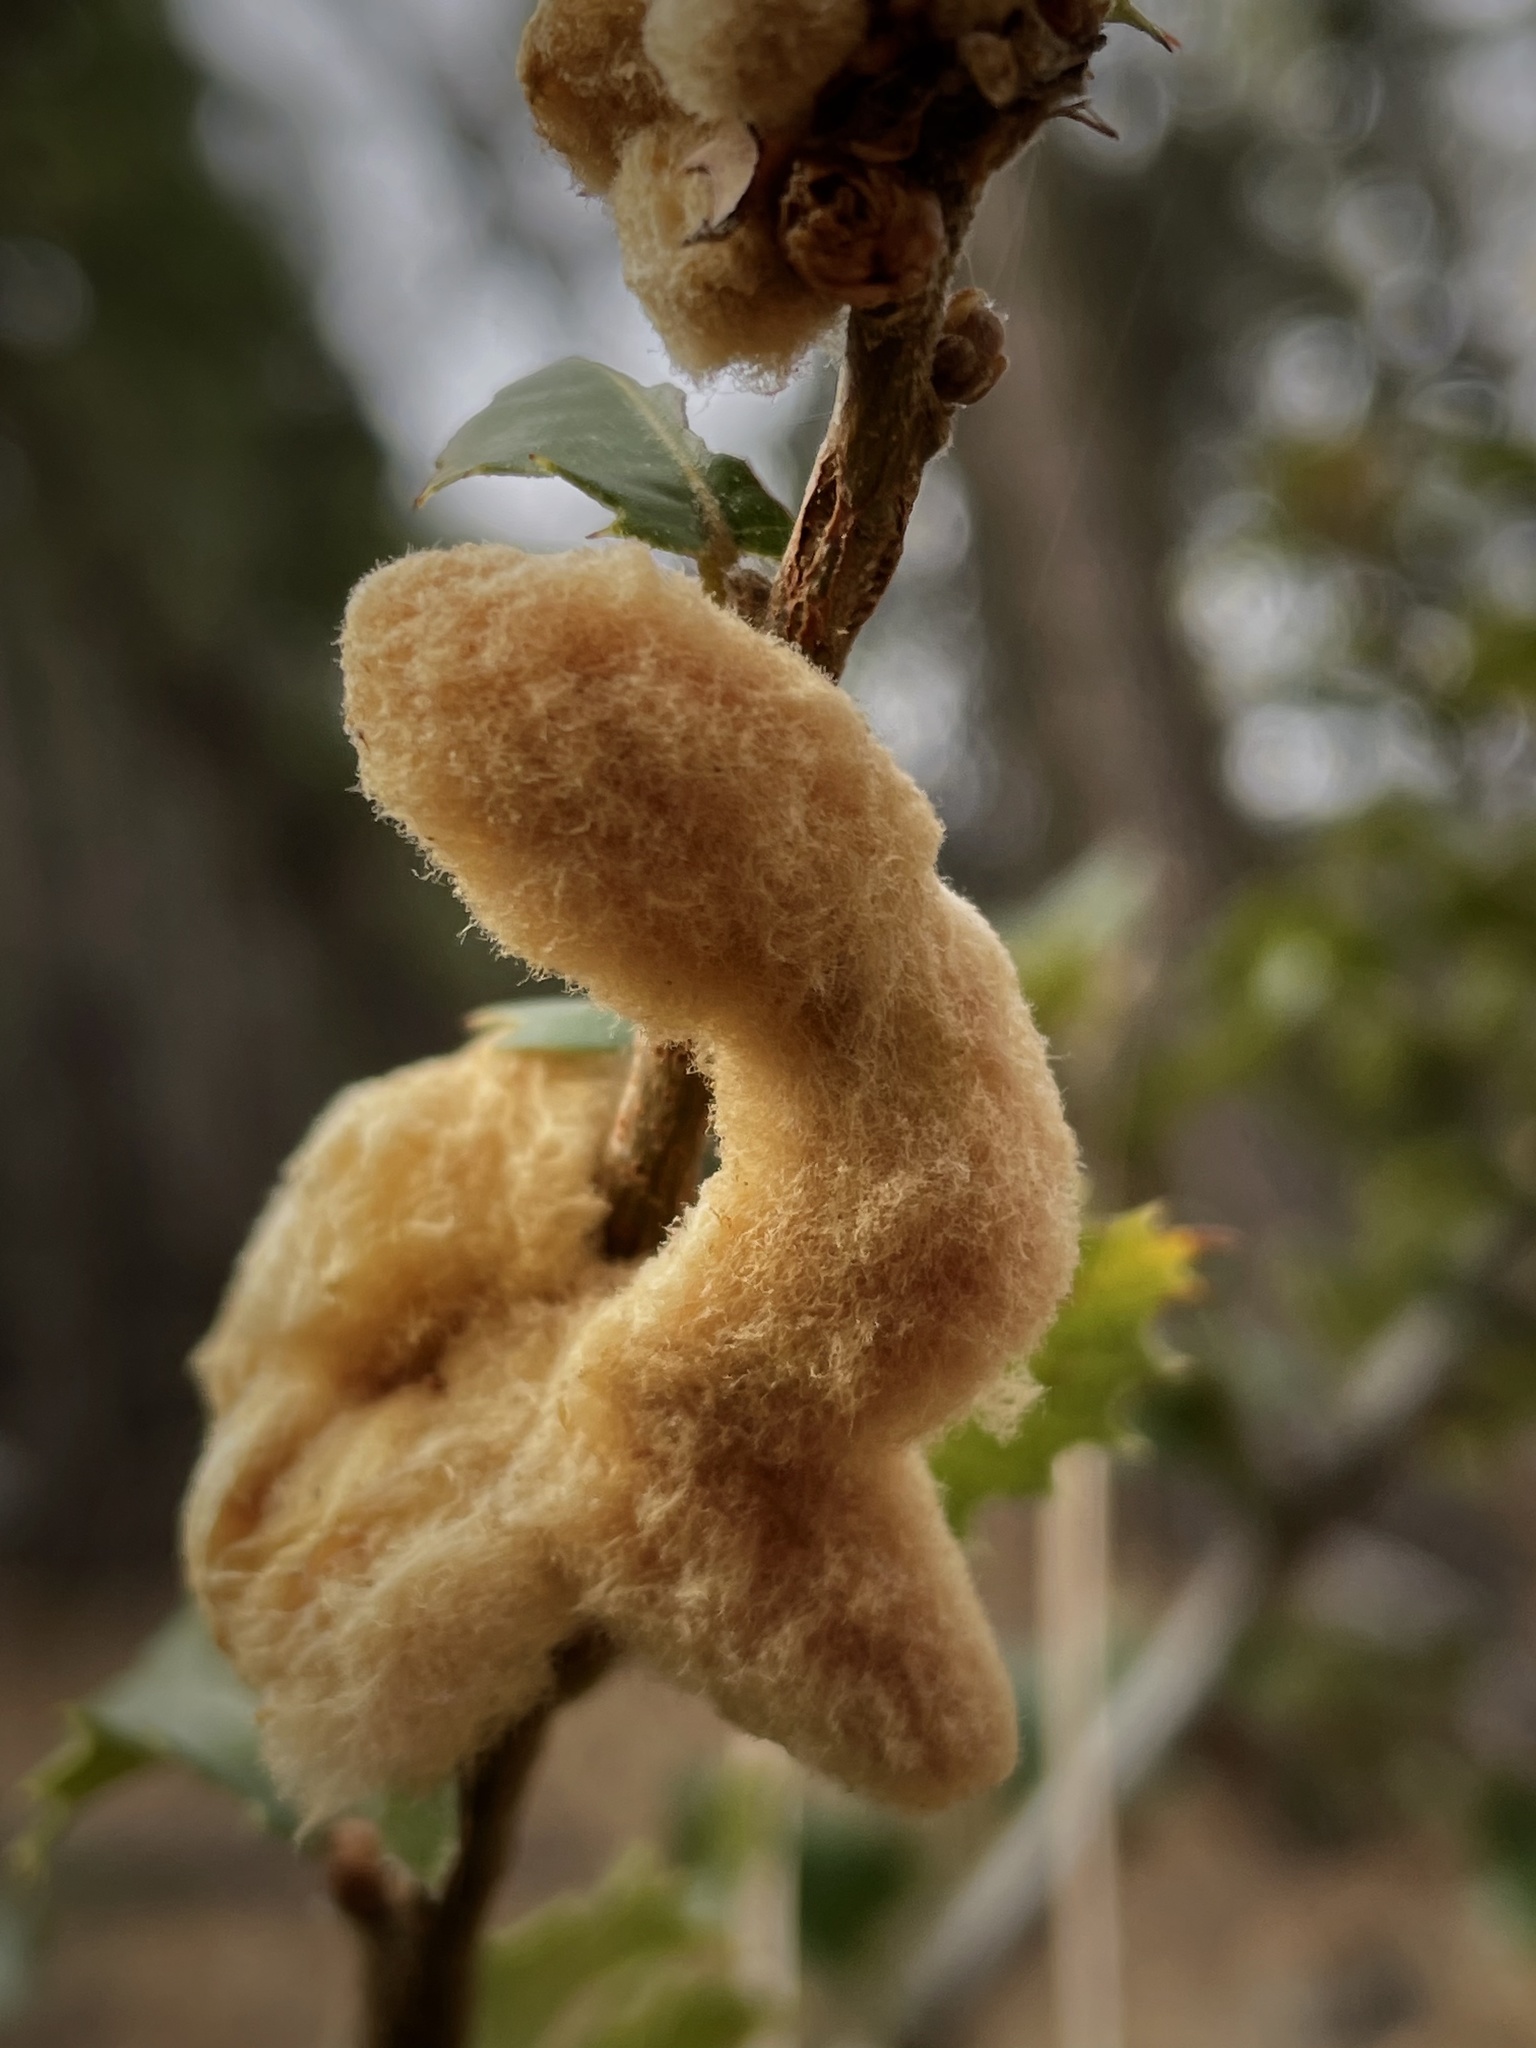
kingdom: Animalia
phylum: Arthropoda
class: Insecta
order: Hymenoptera
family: Cynipidae
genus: Heteroecus
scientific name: Heteroecus
